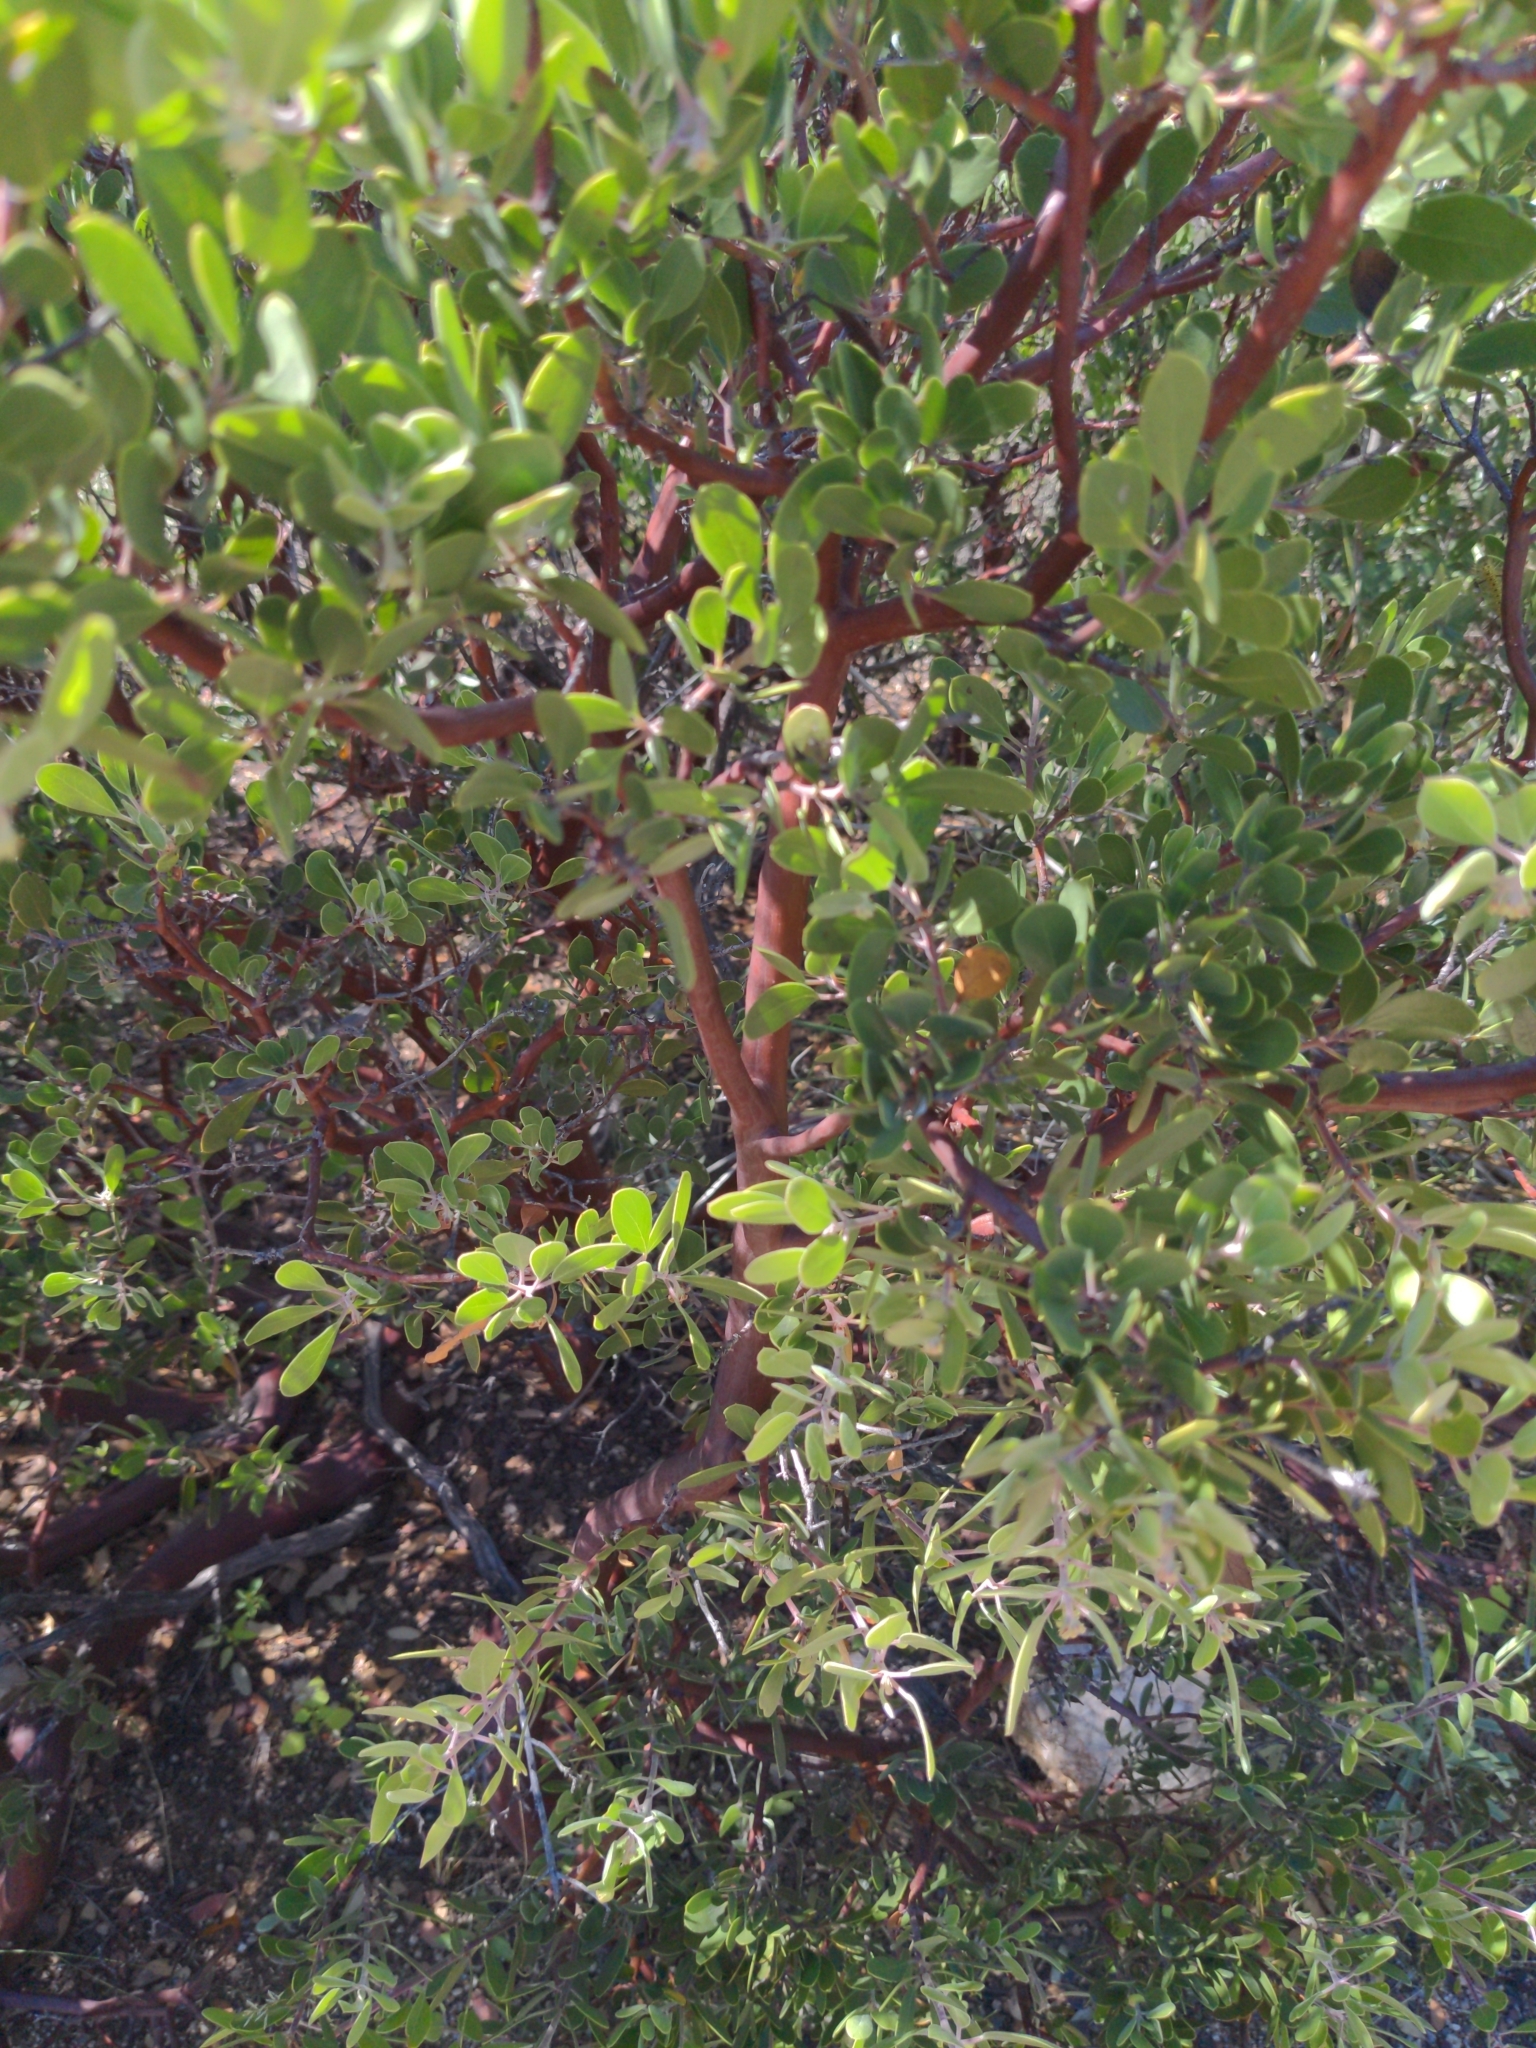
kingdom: Plantae
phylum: Tracheophyta
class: Magnoliopsida
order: Ericales
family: Ericaceae
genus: Arctostaphylos
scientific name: Arctostaphylos pungens
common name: Mexican manzanita
